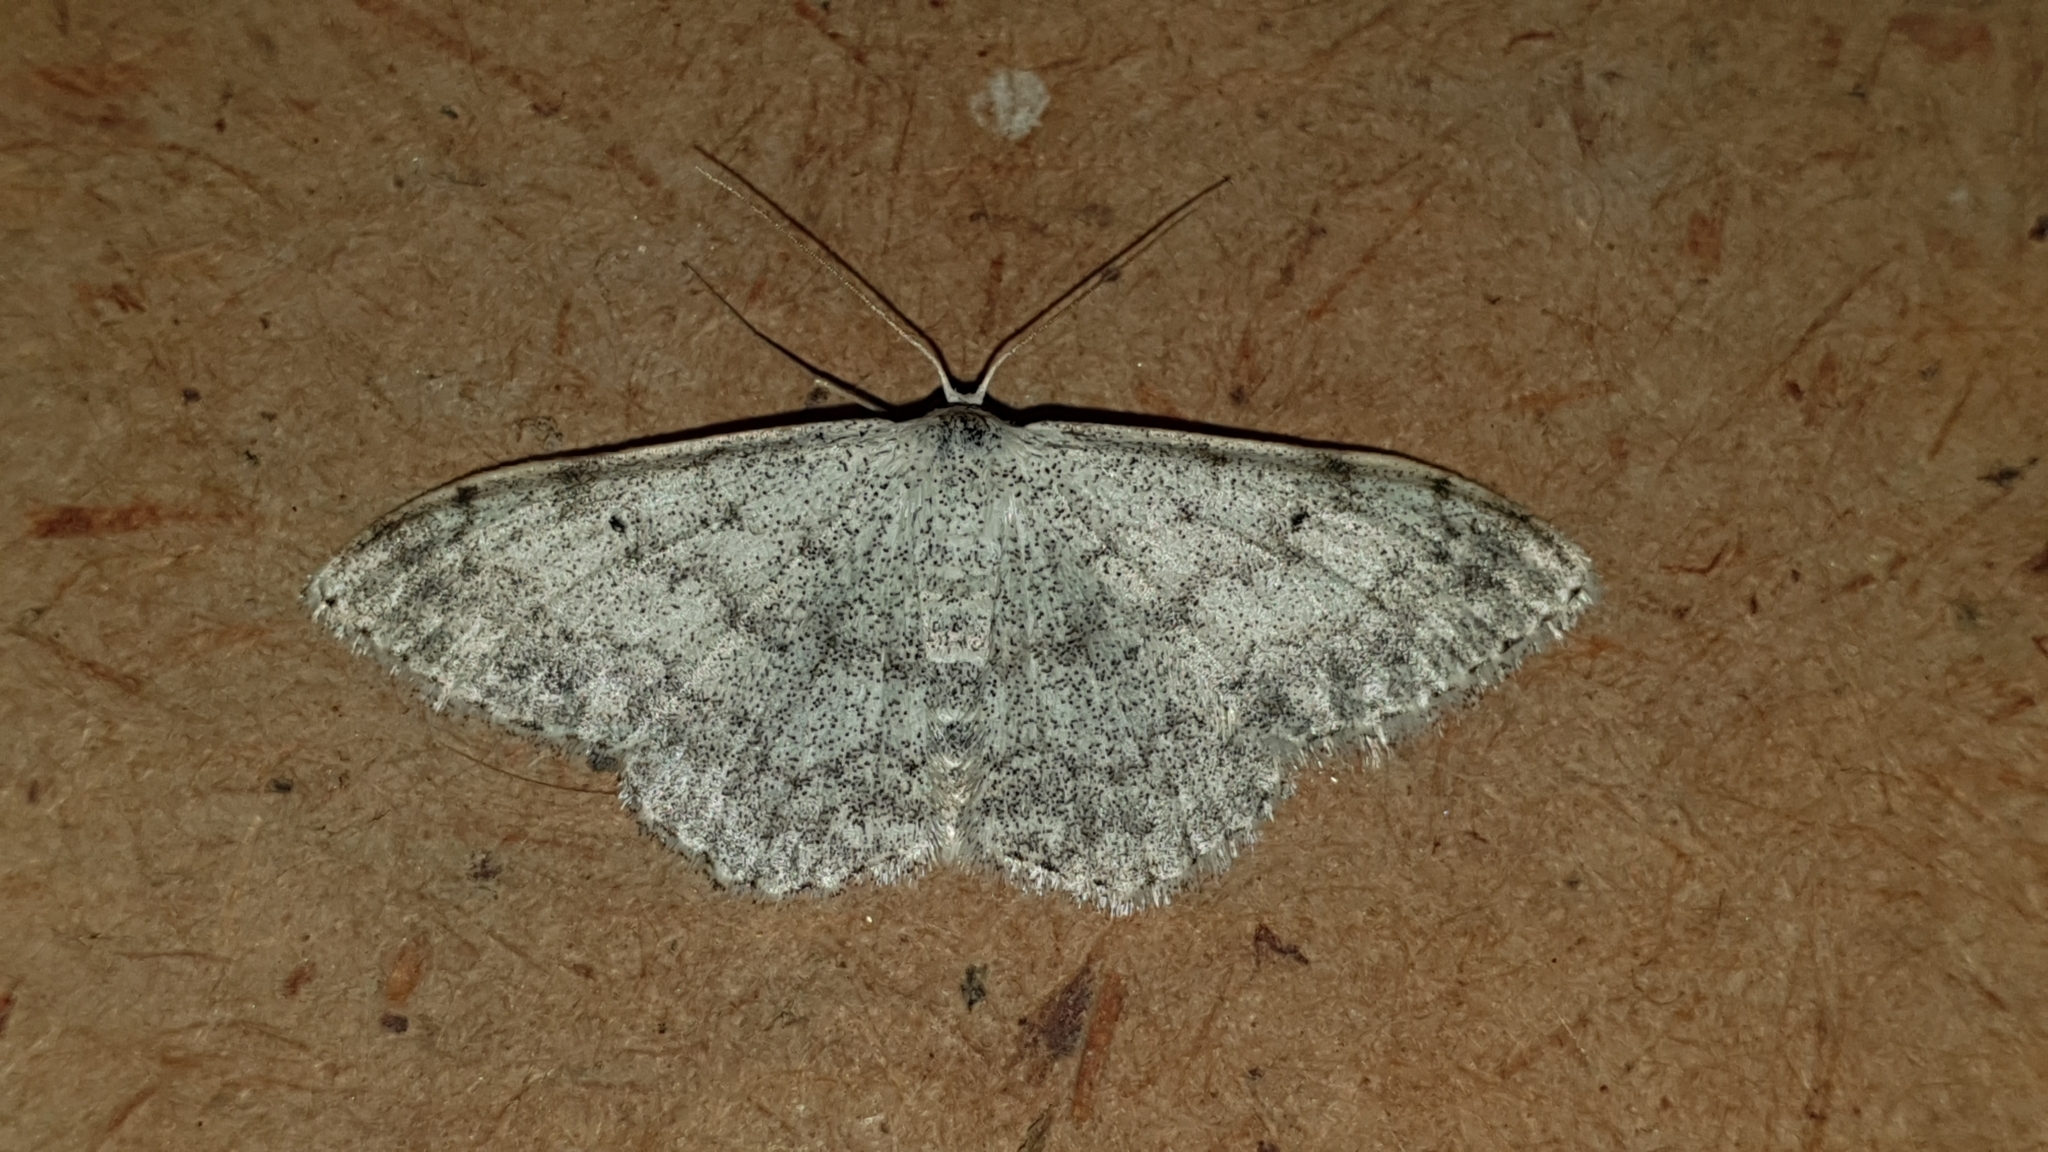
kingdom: Animalia
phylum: Arthropoda
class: Insecta
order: Lepidoptera
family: Geometridae
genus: Scopula
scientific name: Scopula marginepunctata
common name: Mullein wave
